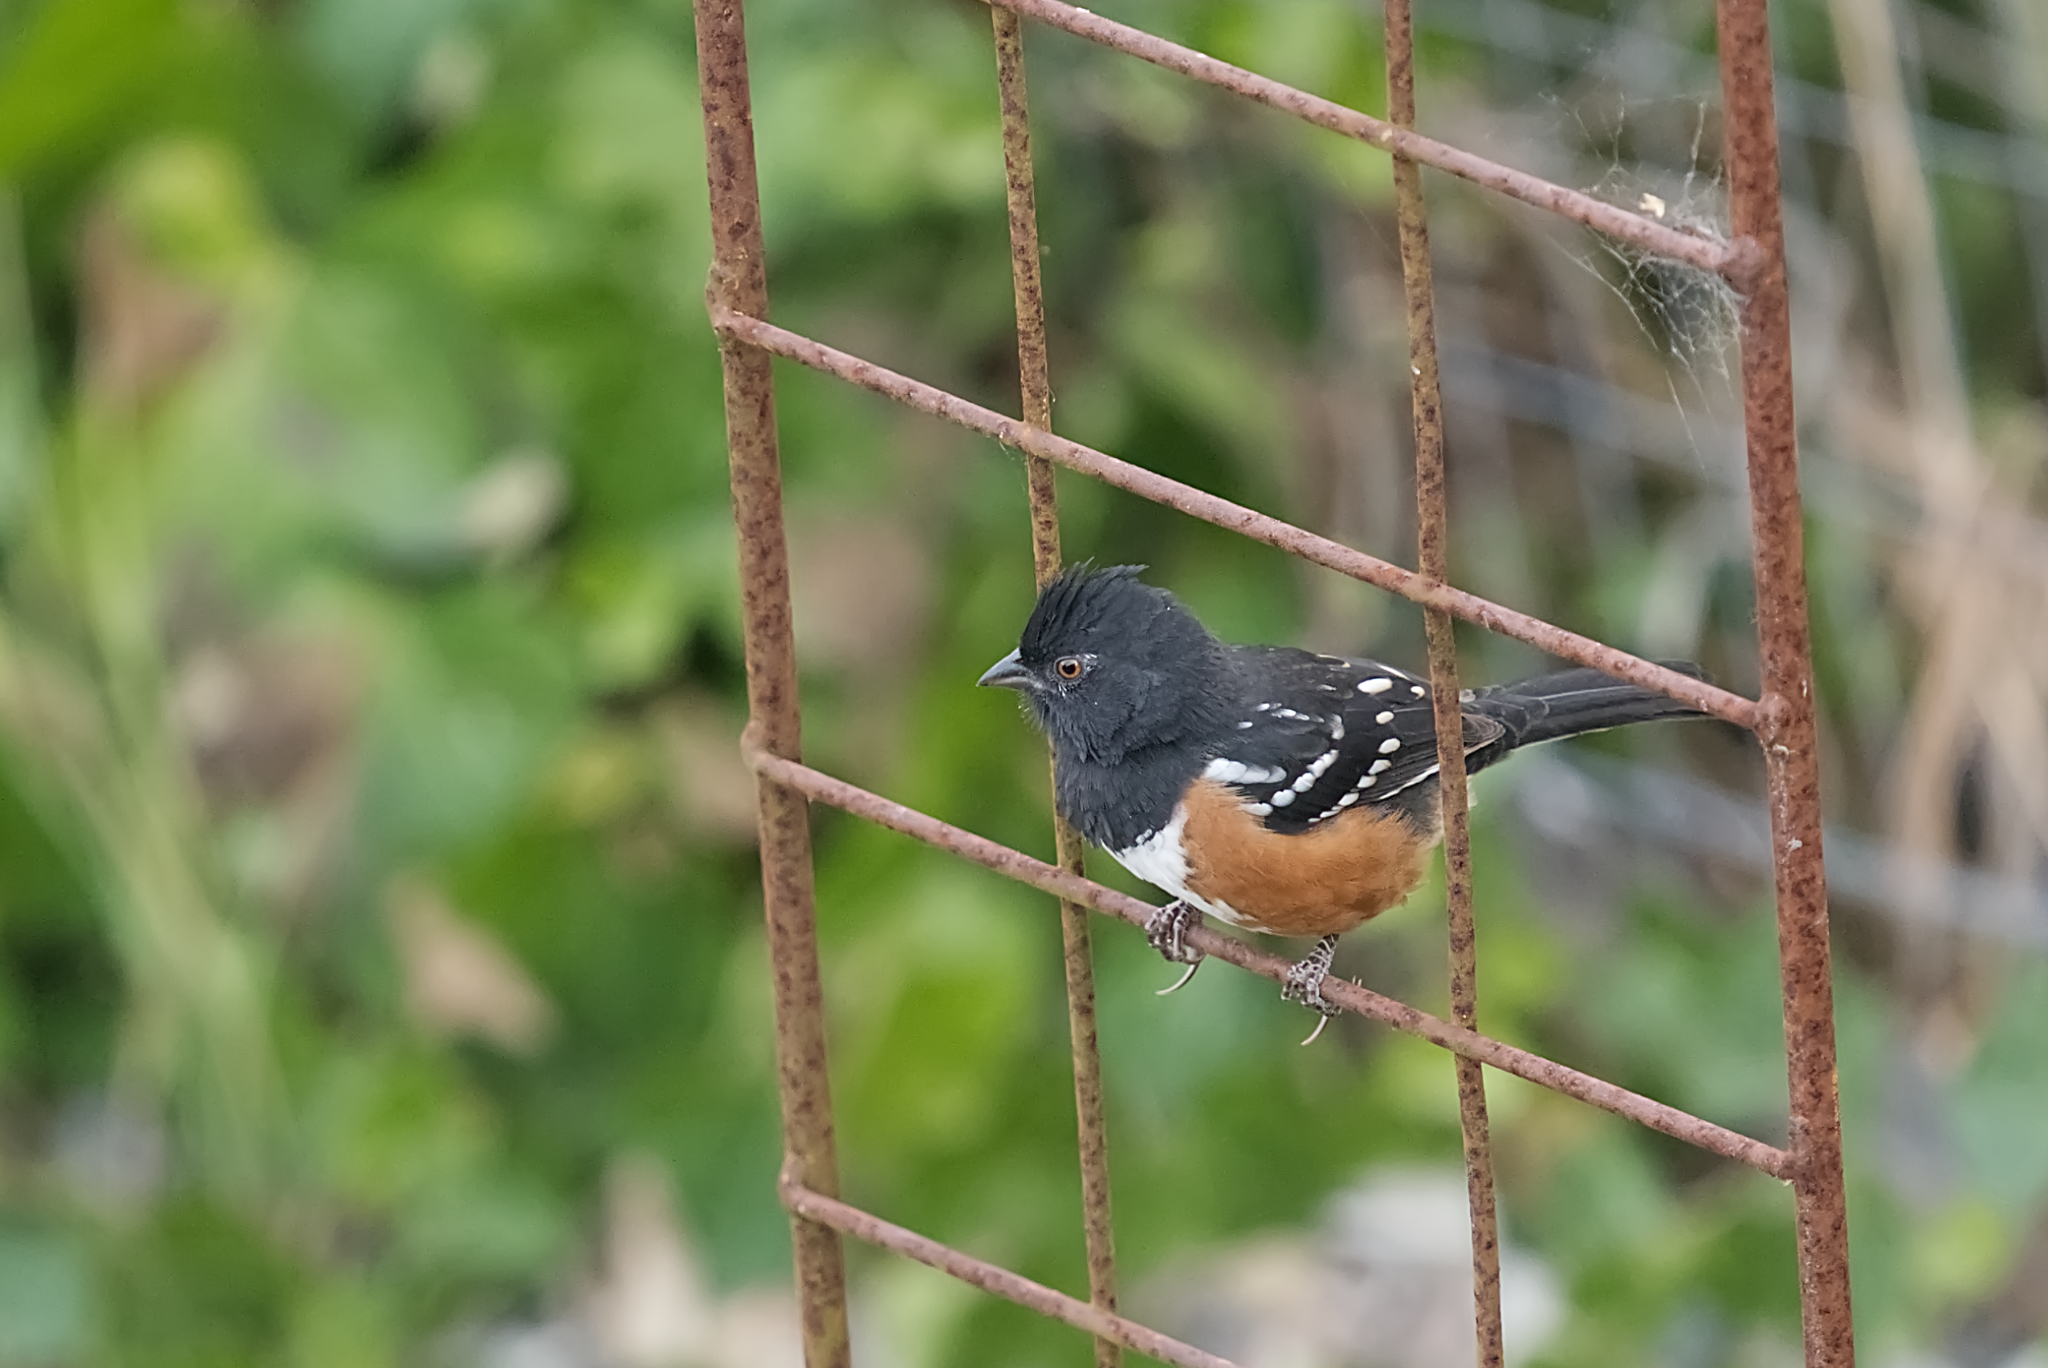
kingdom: Animalia
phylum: Chordata
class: Aves
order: Passeriformes
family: Passerellidae
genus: Pipilo
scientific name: Pipilo maculatus
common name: Spotted towhee
